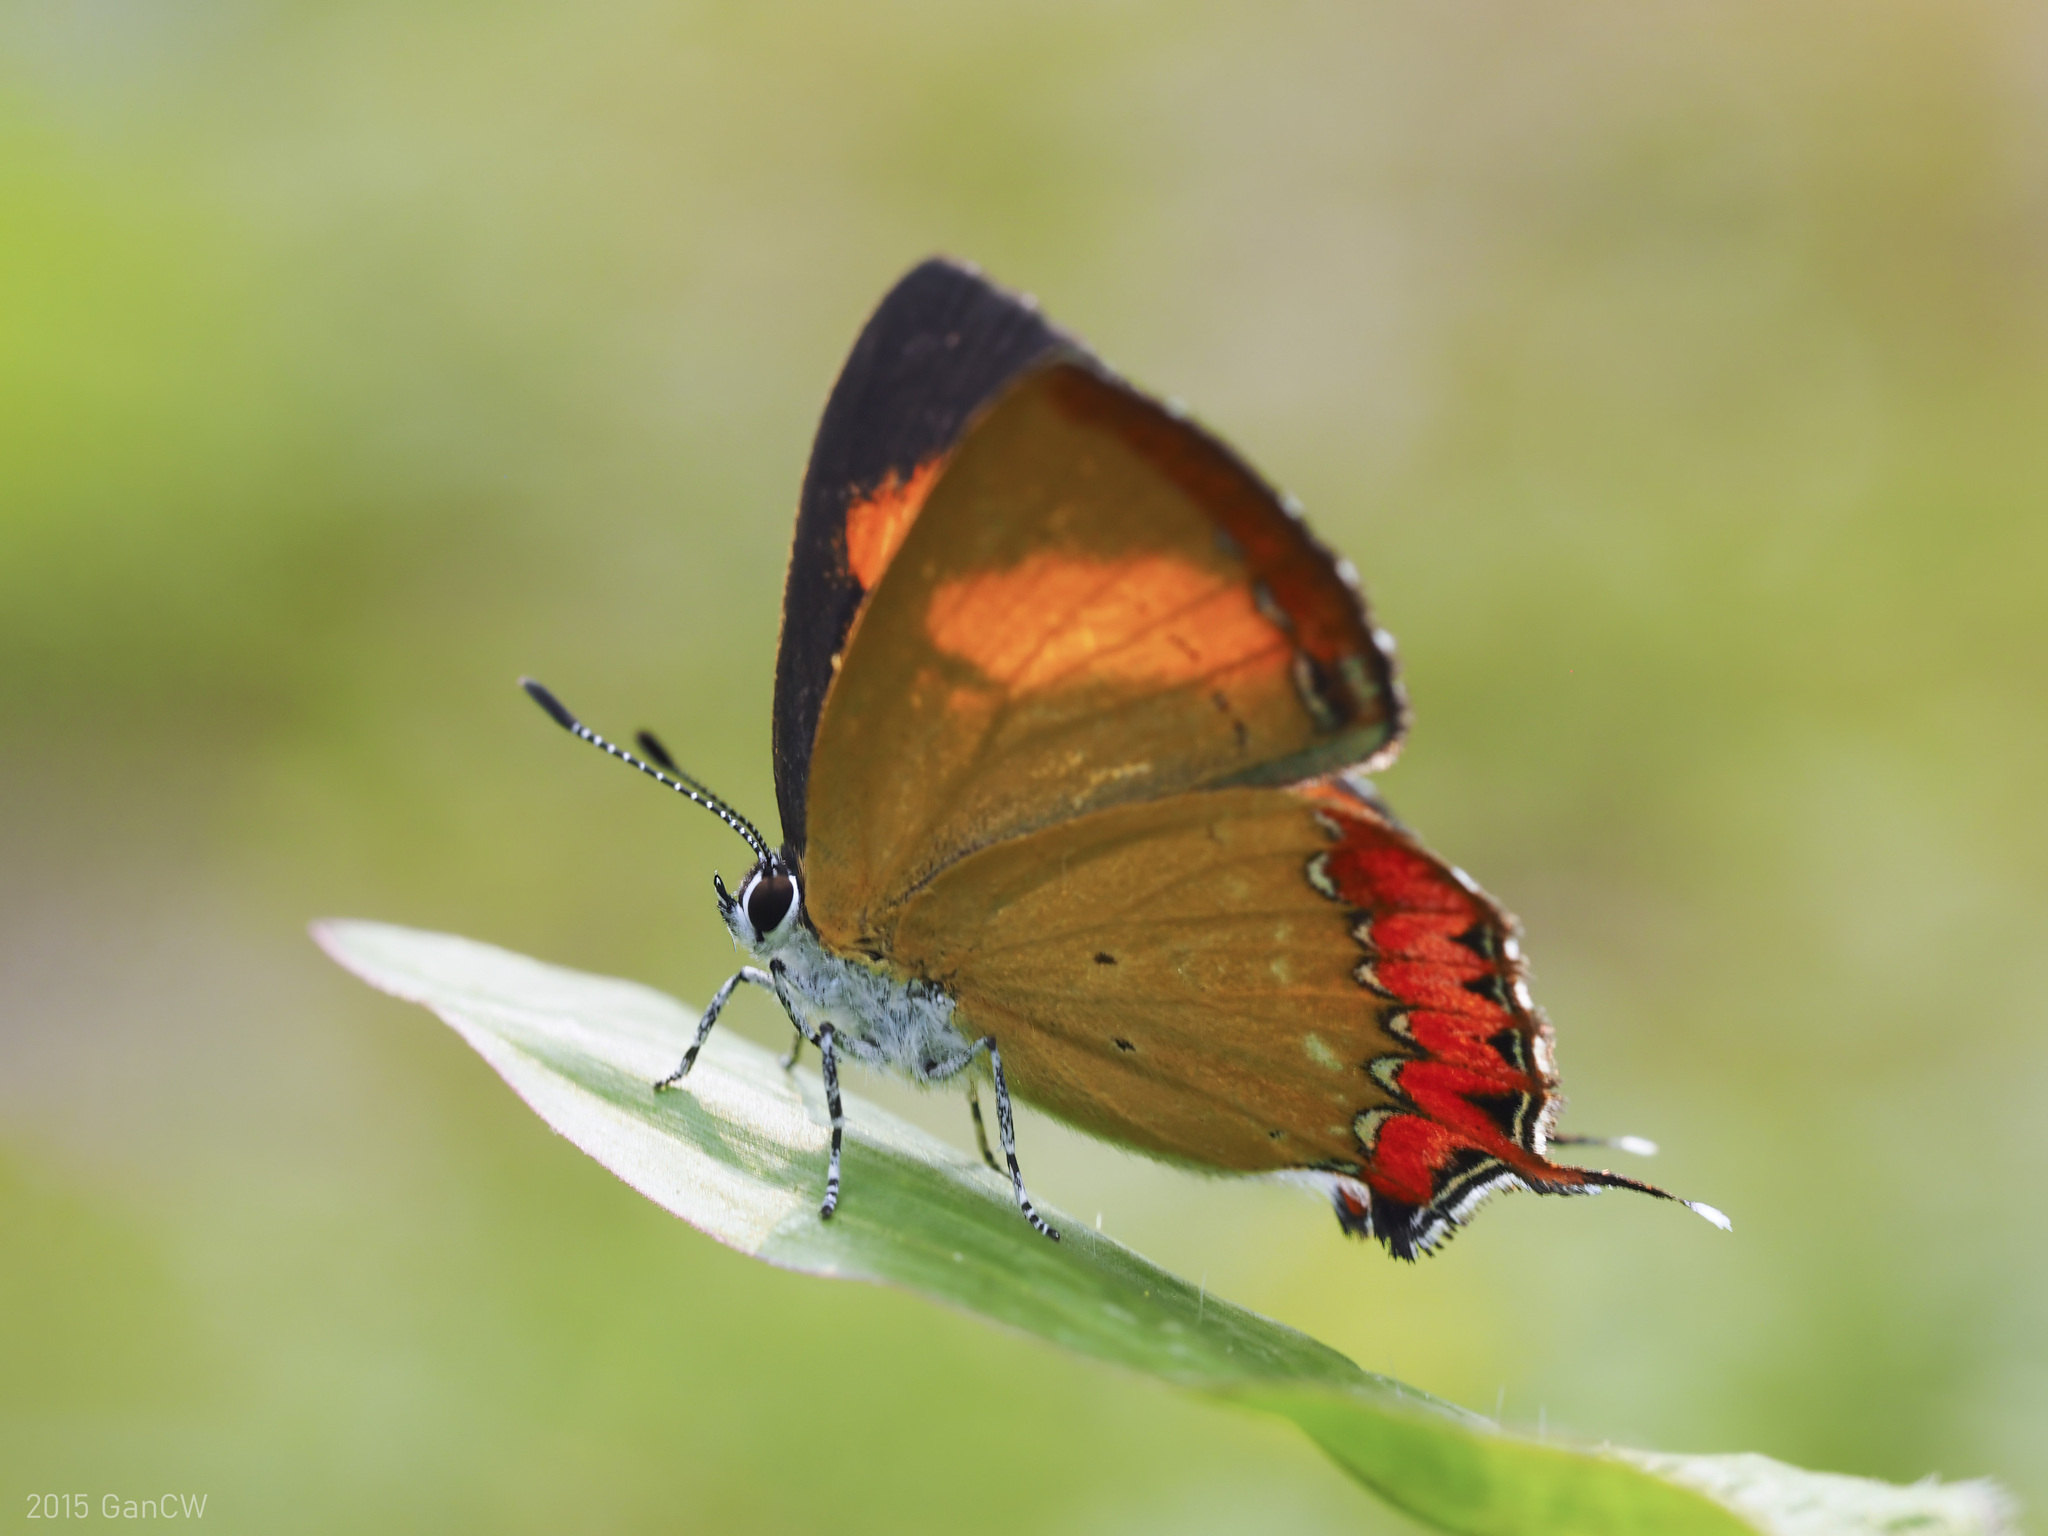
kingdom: Animalia
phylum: Arthropoda
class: Insecta
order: Lepidoptera
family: Lycaenidae
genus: Heliophorus
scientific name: Heliophorus epicles
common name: Purple sapphire
